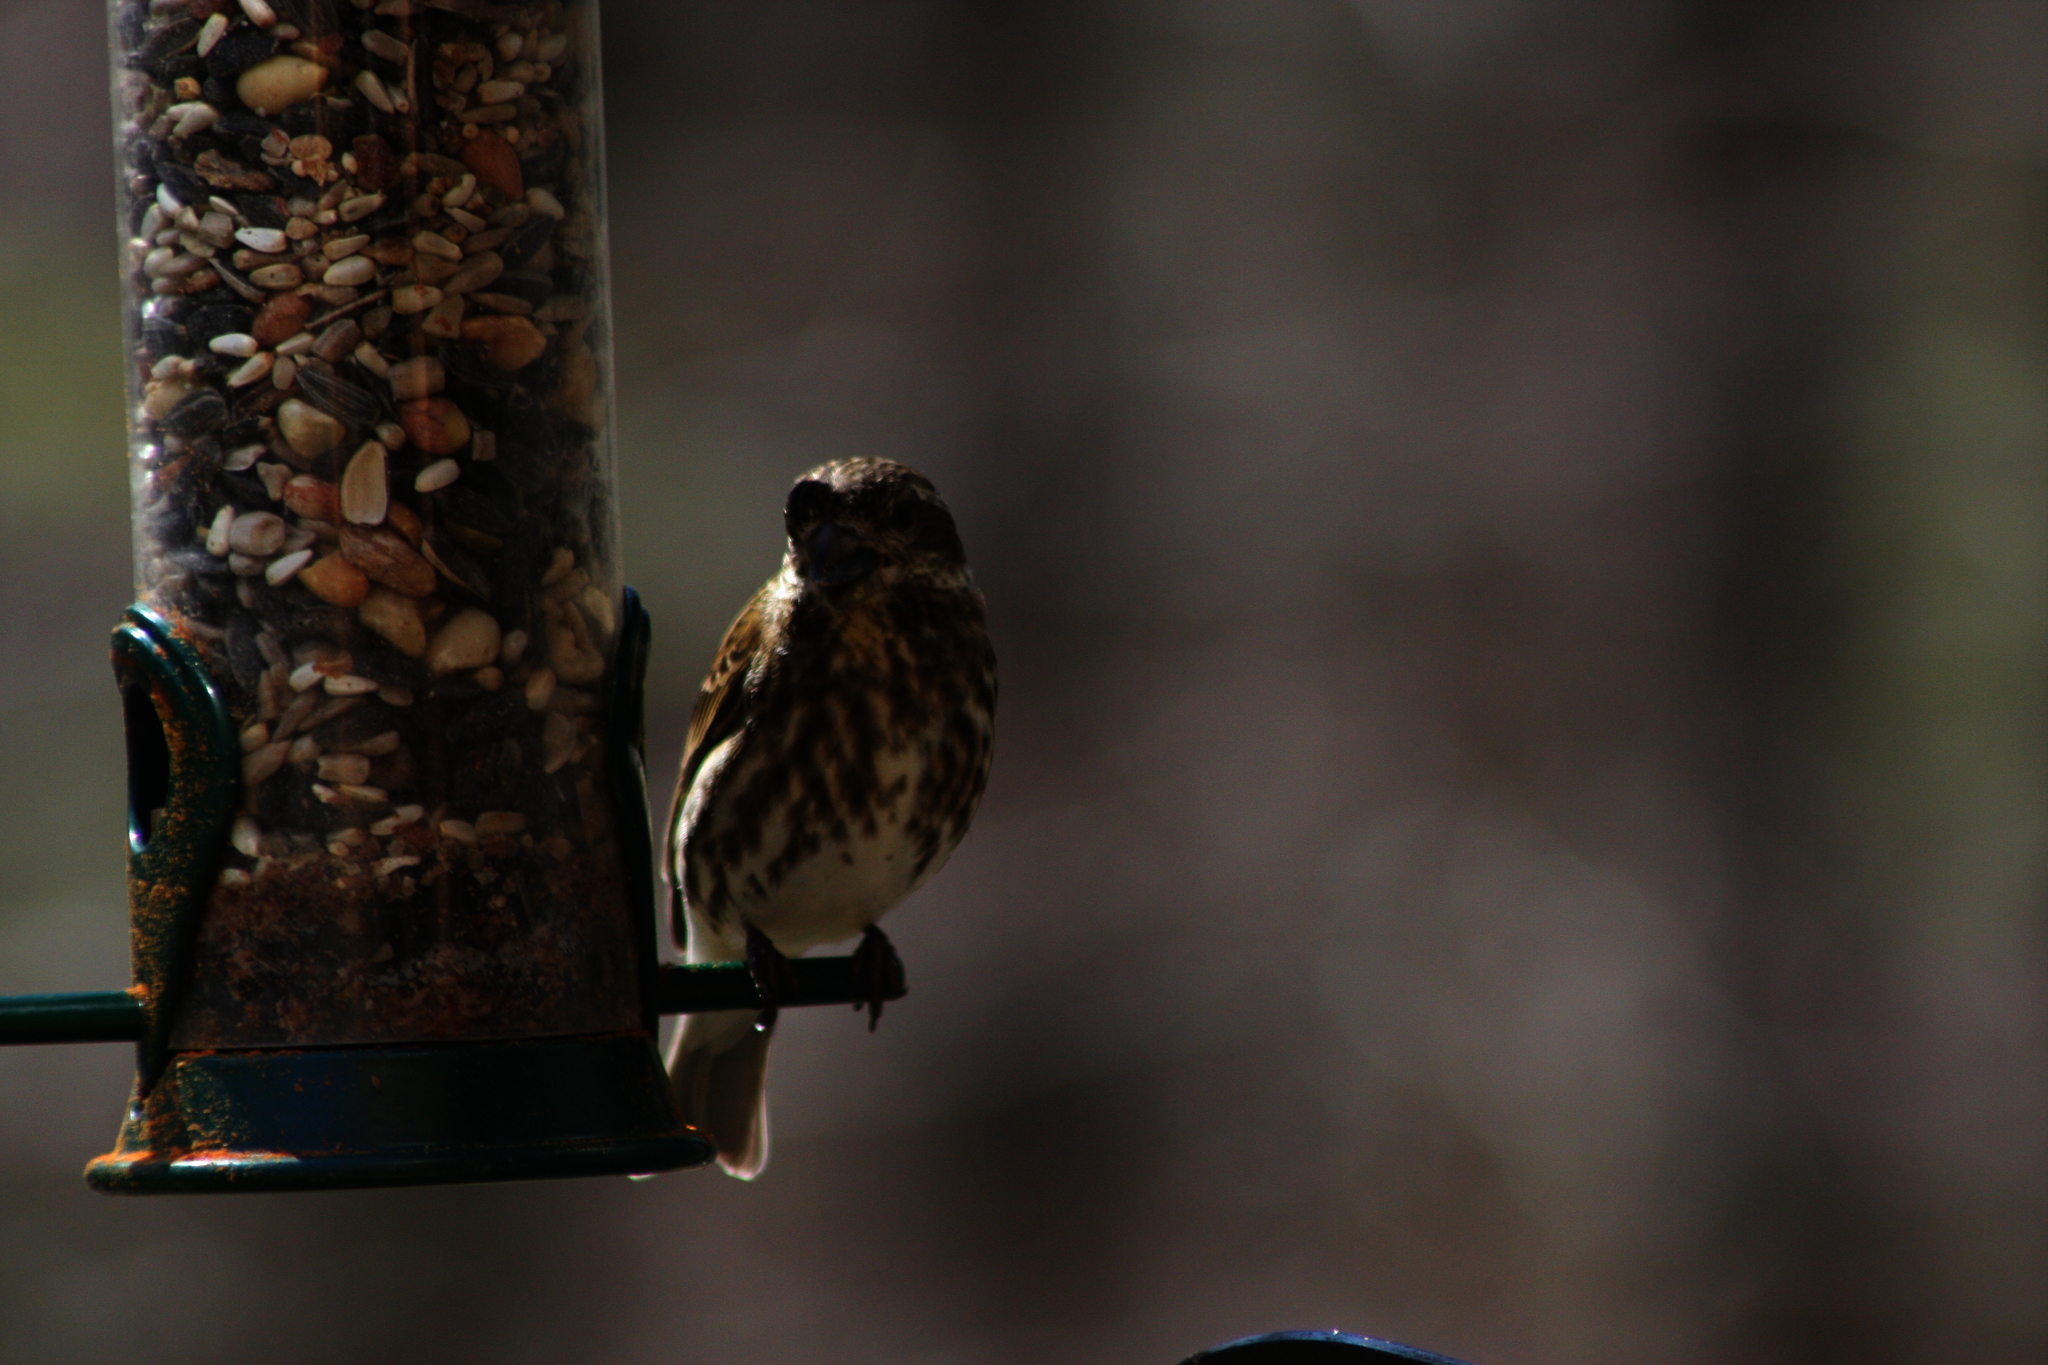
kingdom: Animalia
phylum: Chordata
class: Aves
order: Passeriformes
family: Fringillidae
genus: Haemorhous
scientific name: Haemorhous purpureus
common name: Purple finch
